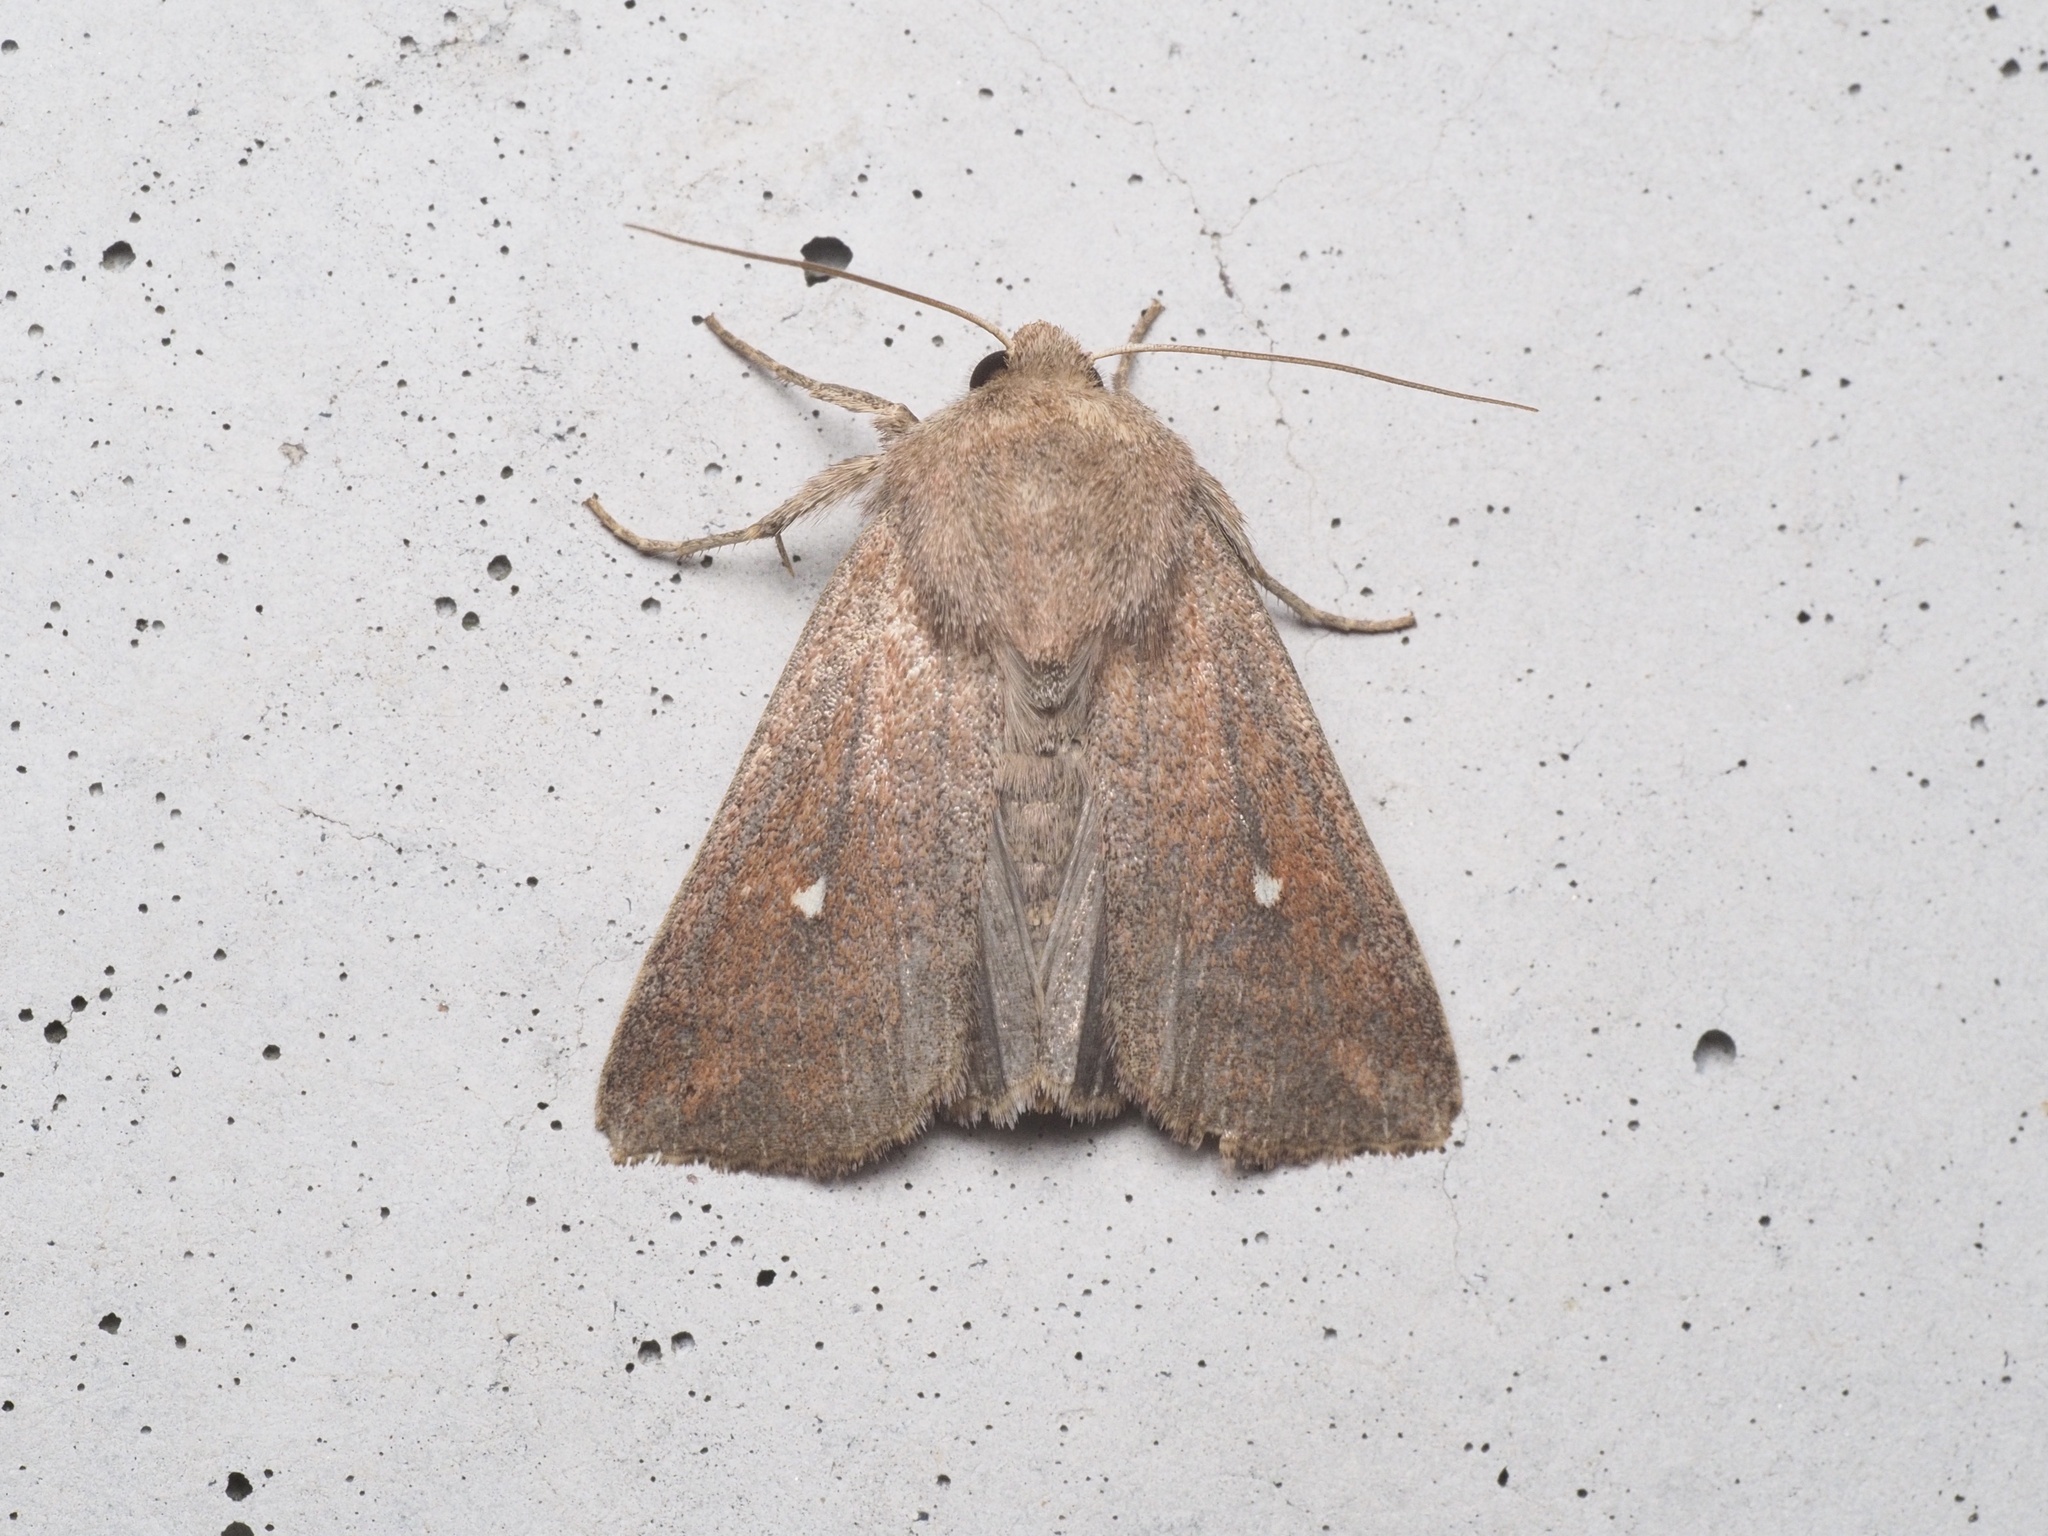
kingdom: Animalia
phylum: Arthropoda
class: Insecta
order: Lepidoptera
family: Noctuidae
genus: Mythimna
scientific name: Mythimna albipuncta
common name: White-point
